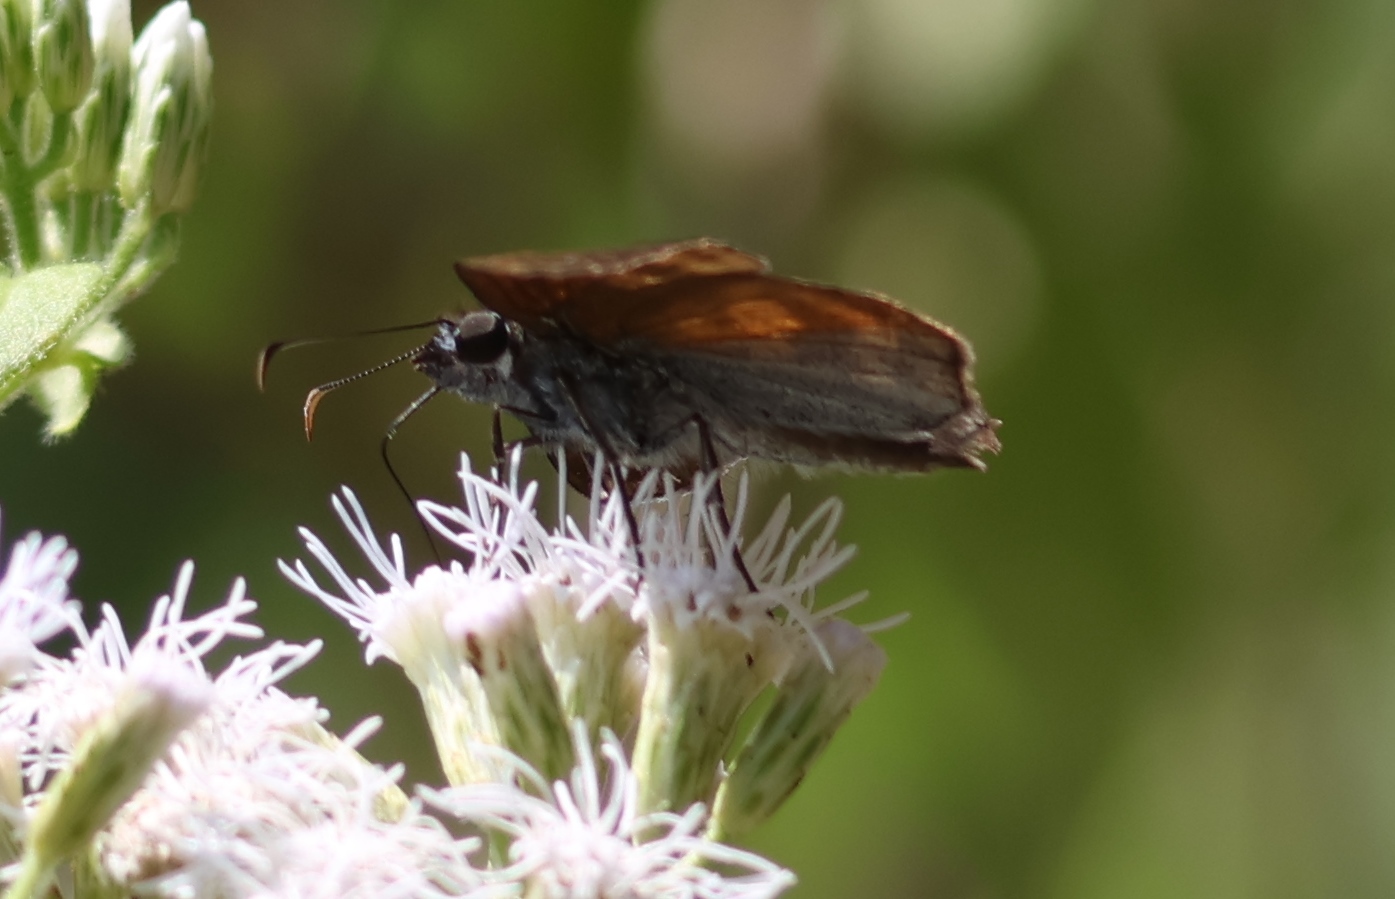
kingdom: Animalia
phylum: Arthropoda
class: Insecta
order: Lepidoptera
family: Hesperiidae
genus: Anastrus
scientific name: Anastrus Echelatus sempiternus
